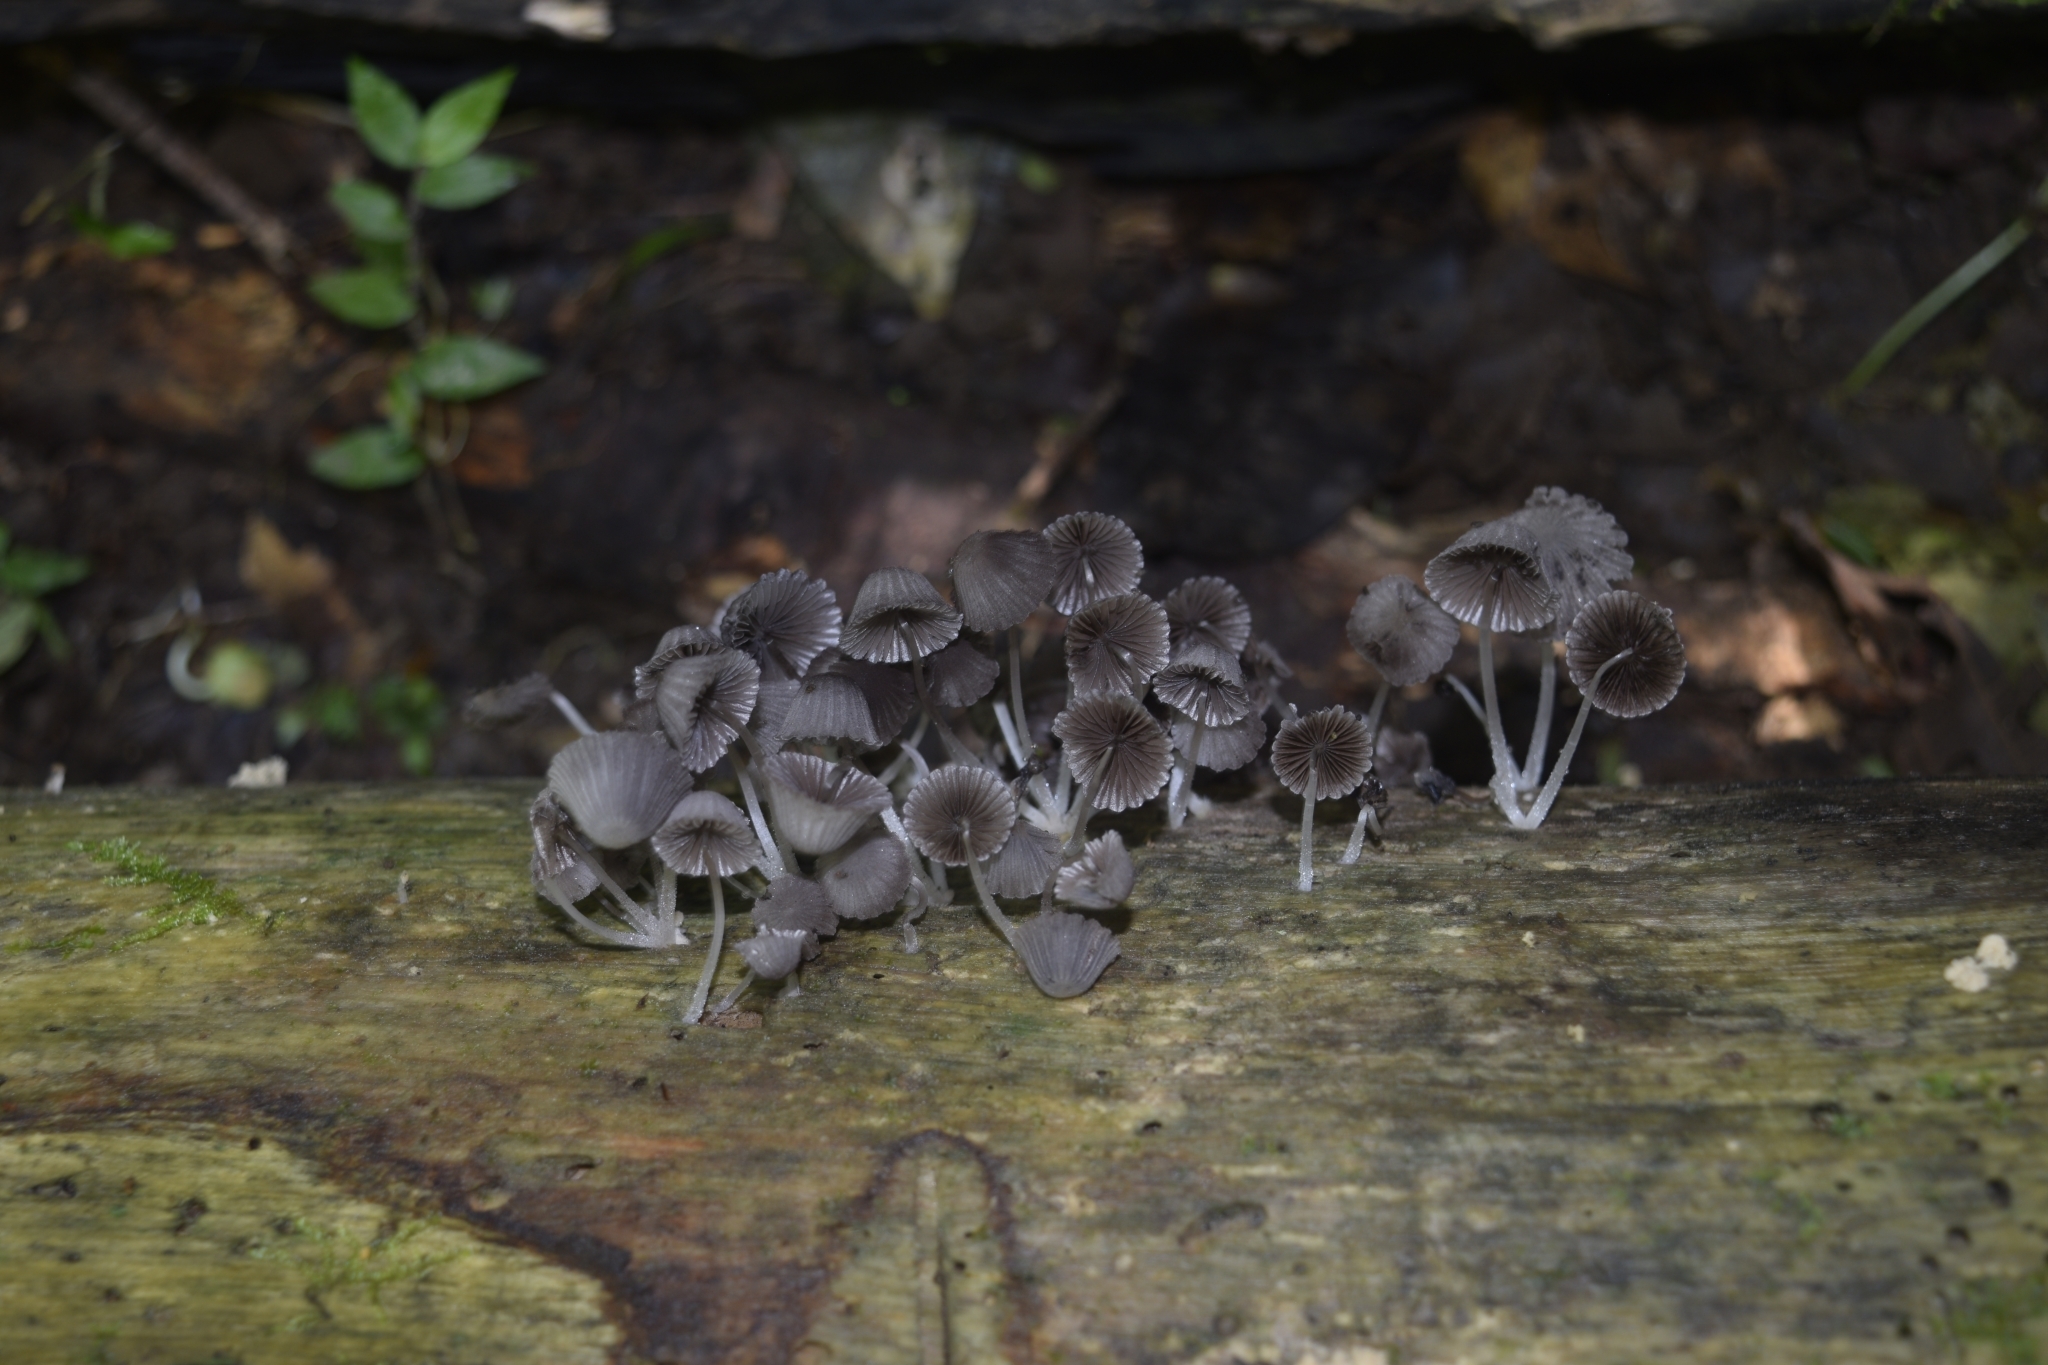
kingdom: Fungi
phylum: Basidiomycota
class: Agaricomycetes
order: Agaricales
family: Psathyrellaceae
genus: Coprinellus
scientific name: Coprinellus disseminatus
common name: Fairies' bonnets
